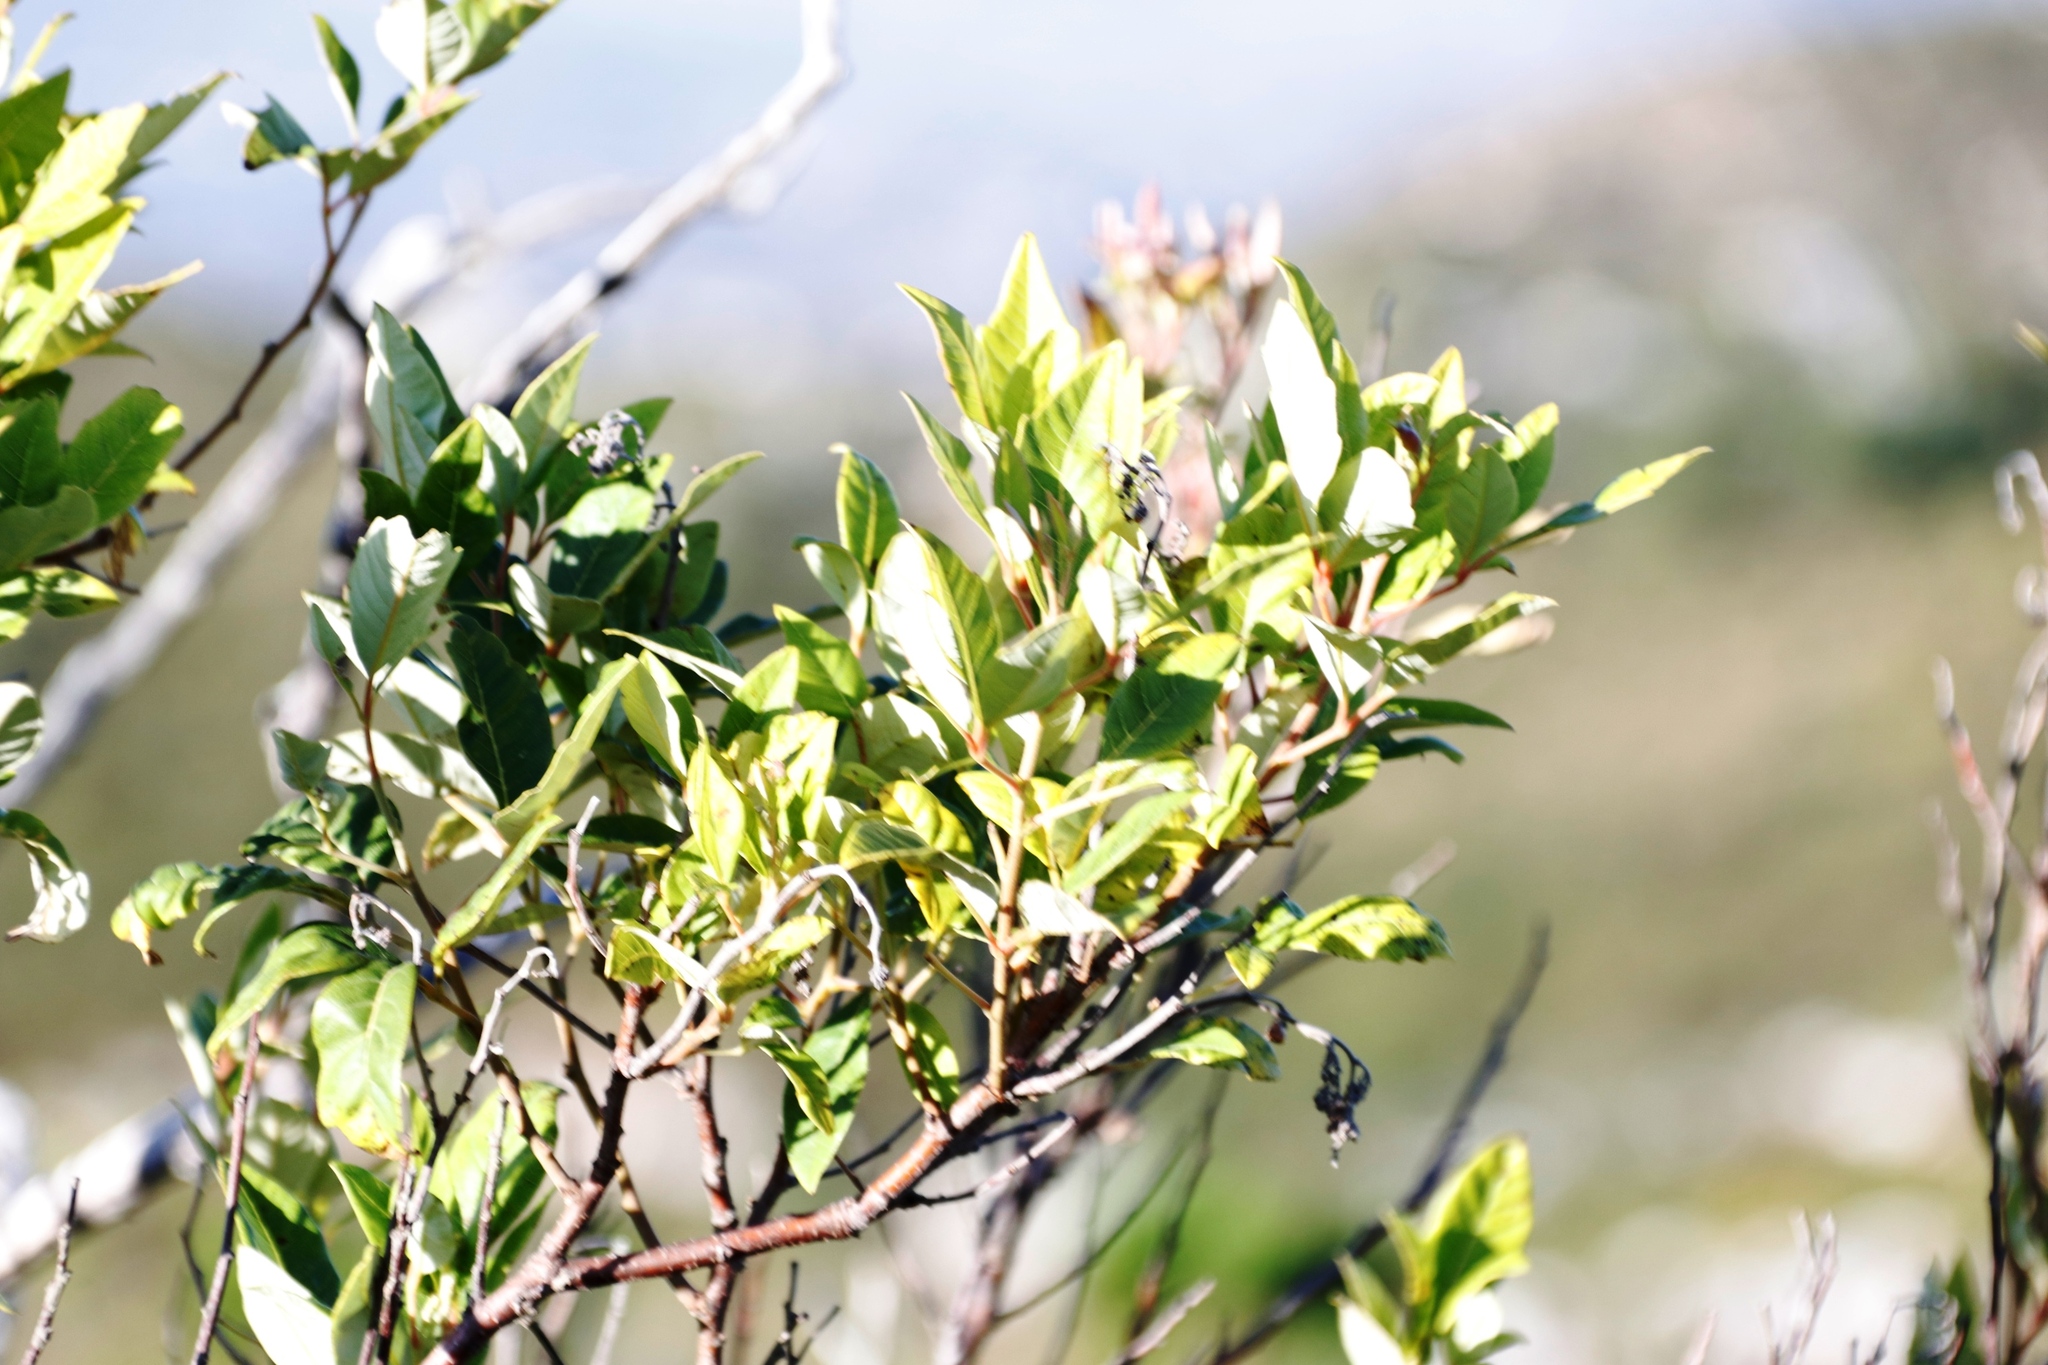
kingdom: Plantae
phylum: Tracheophyta
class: Magnoliopsida
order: Sapindales
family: Anacardiaceae
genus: Searsia
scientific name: Searsia tomentosa
